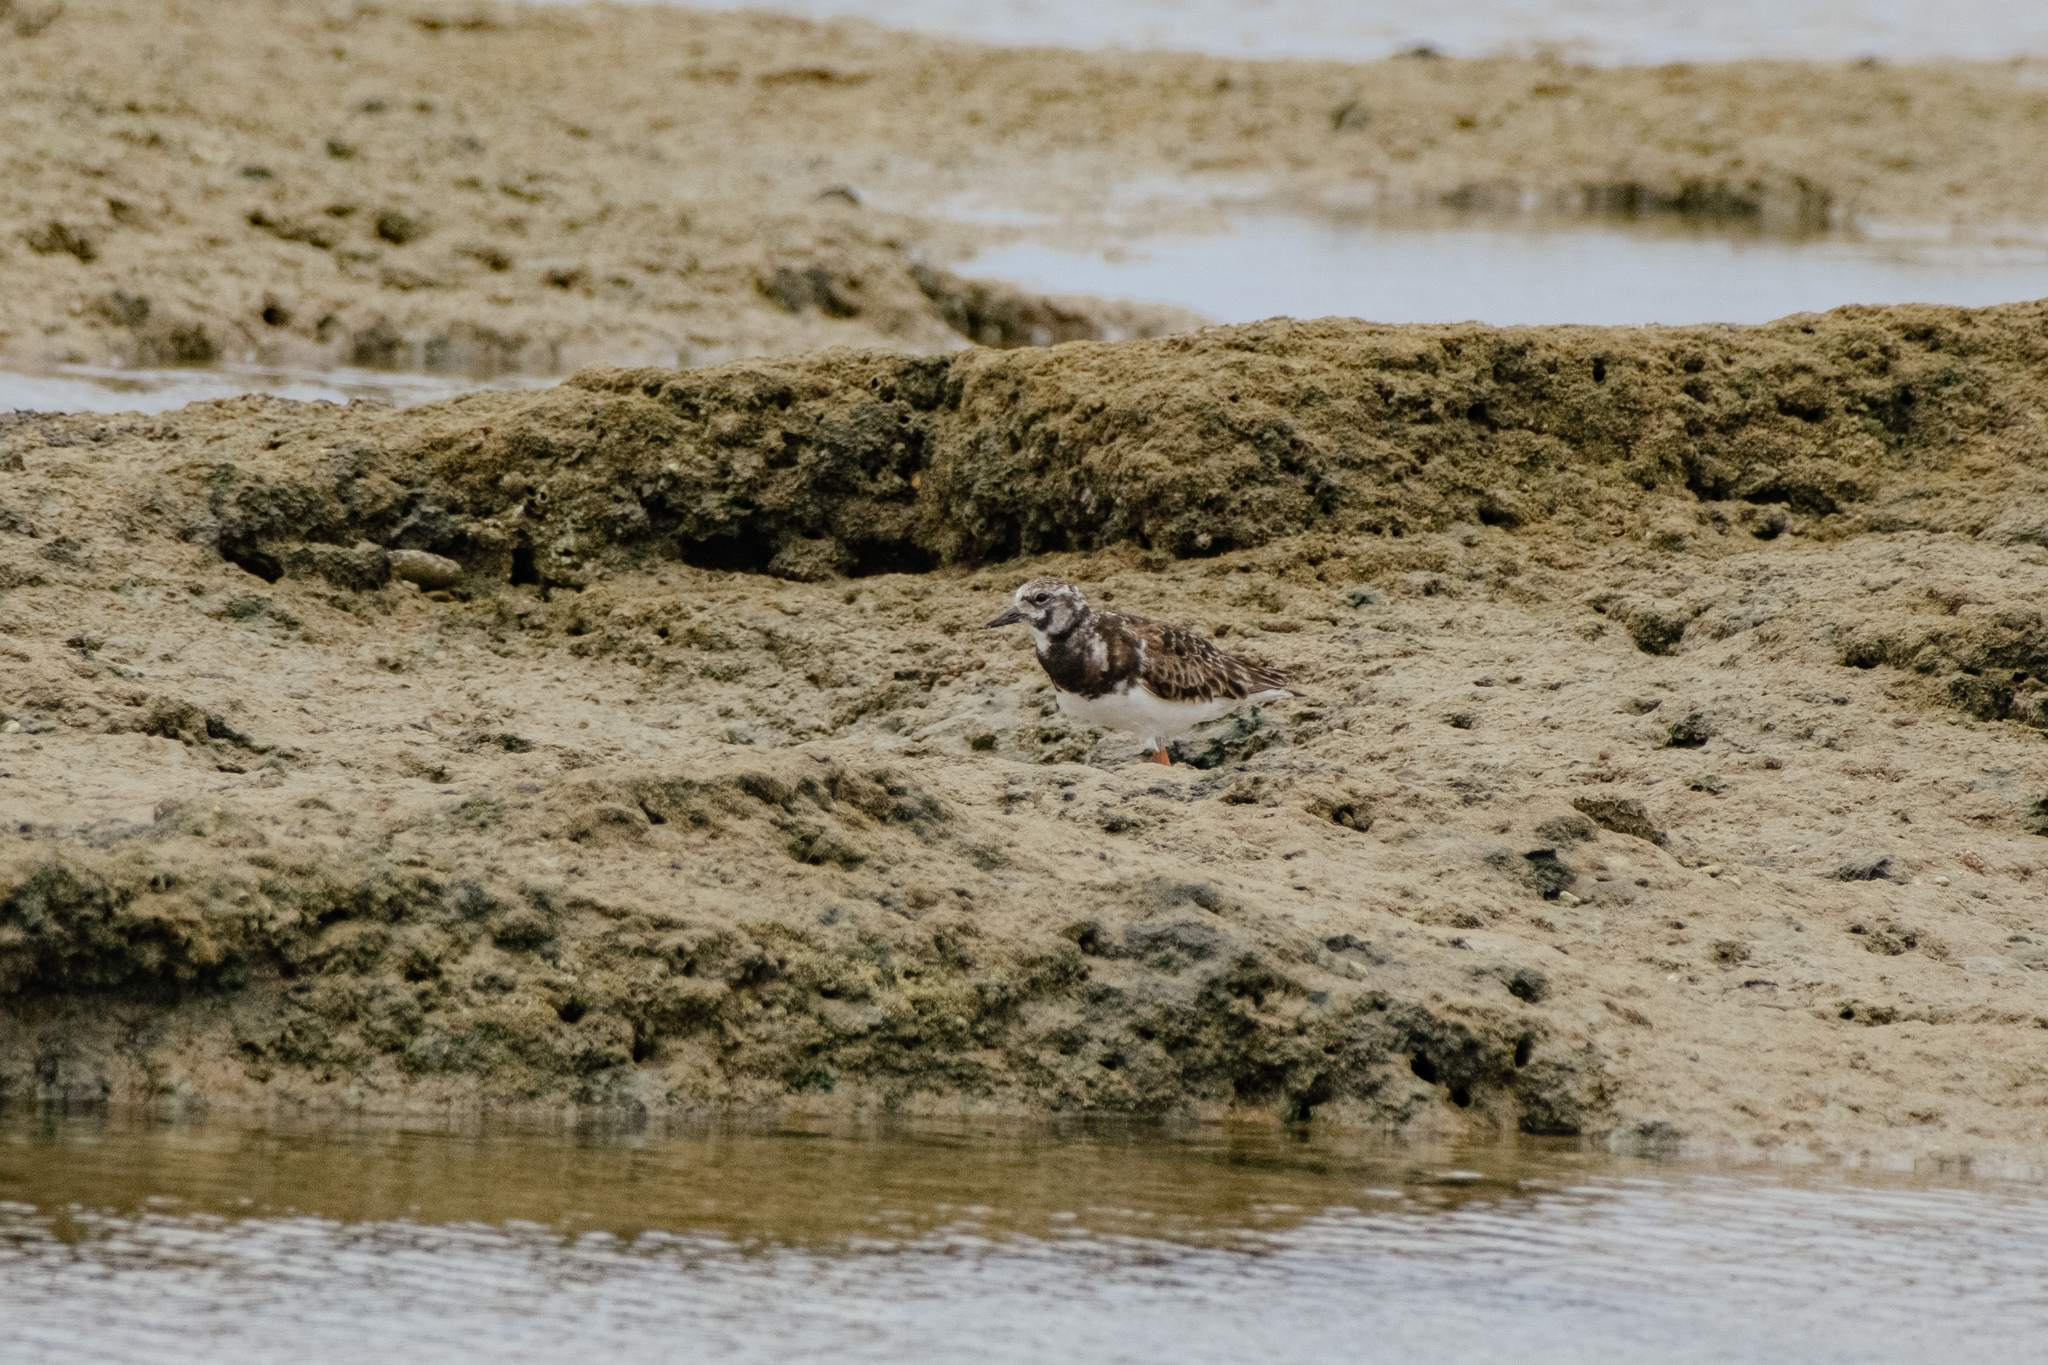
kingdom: Animalia
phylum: Chordata
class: Aves
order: Charadriiformes
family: Scolopacidae
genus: Arenaria
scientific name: Arenaria interpres
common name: Ruddy turnstone
